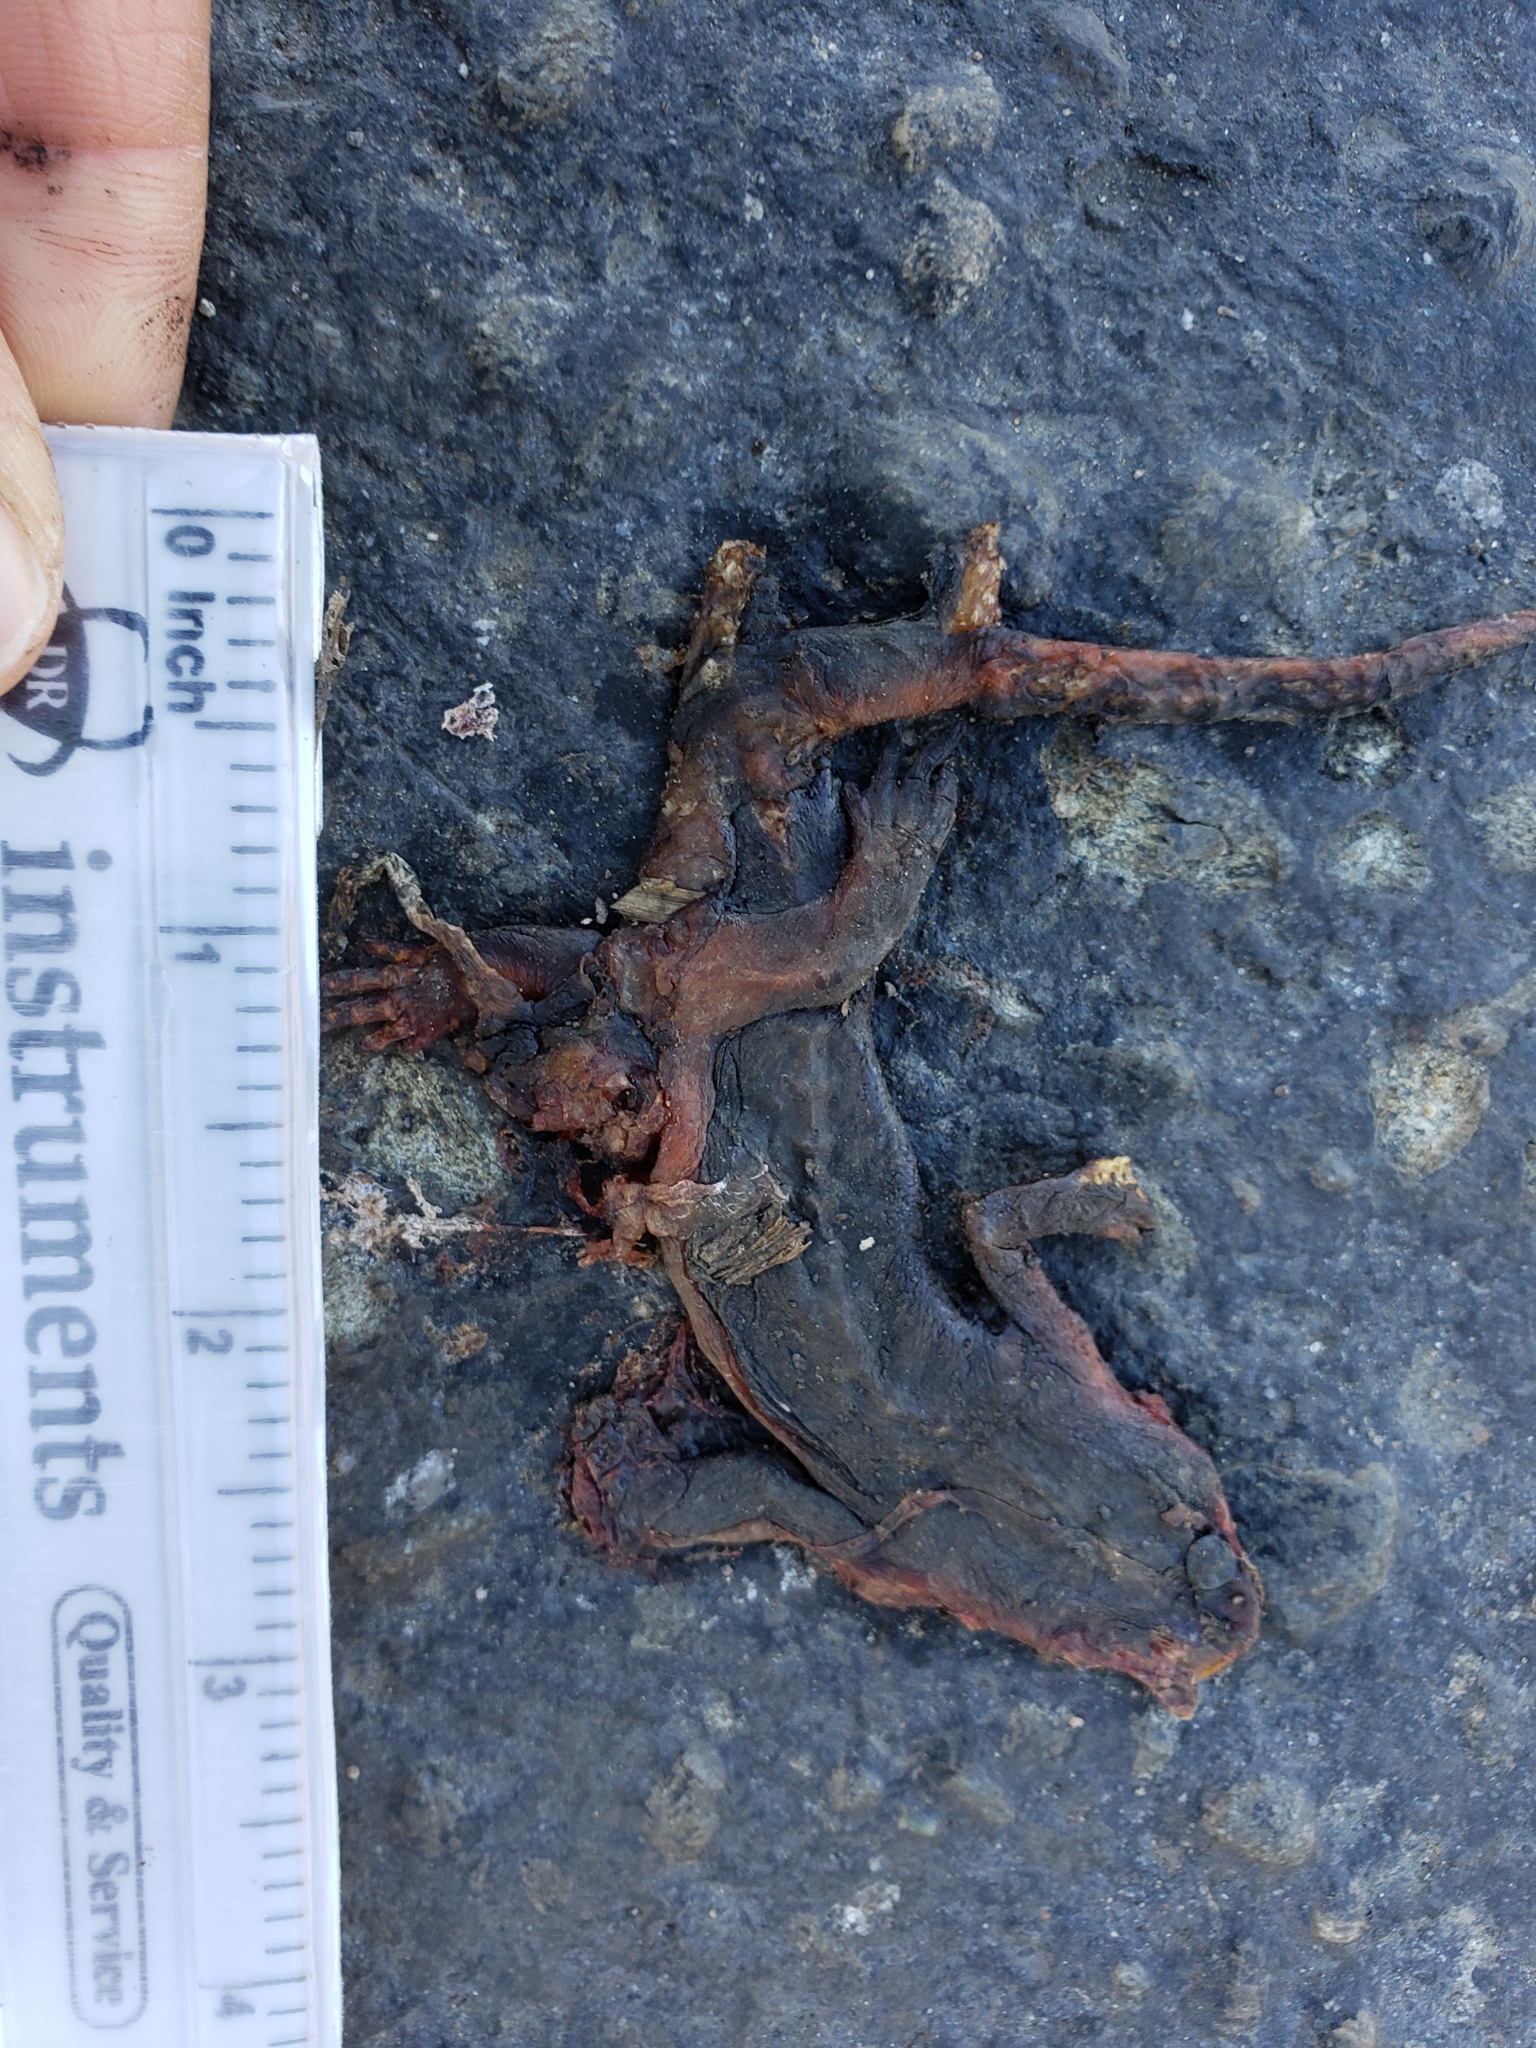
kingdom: Animalia
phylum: Chordata
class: Amphibia
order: Caudata
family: Salamandridae
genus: Taricha
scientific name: Taricha
